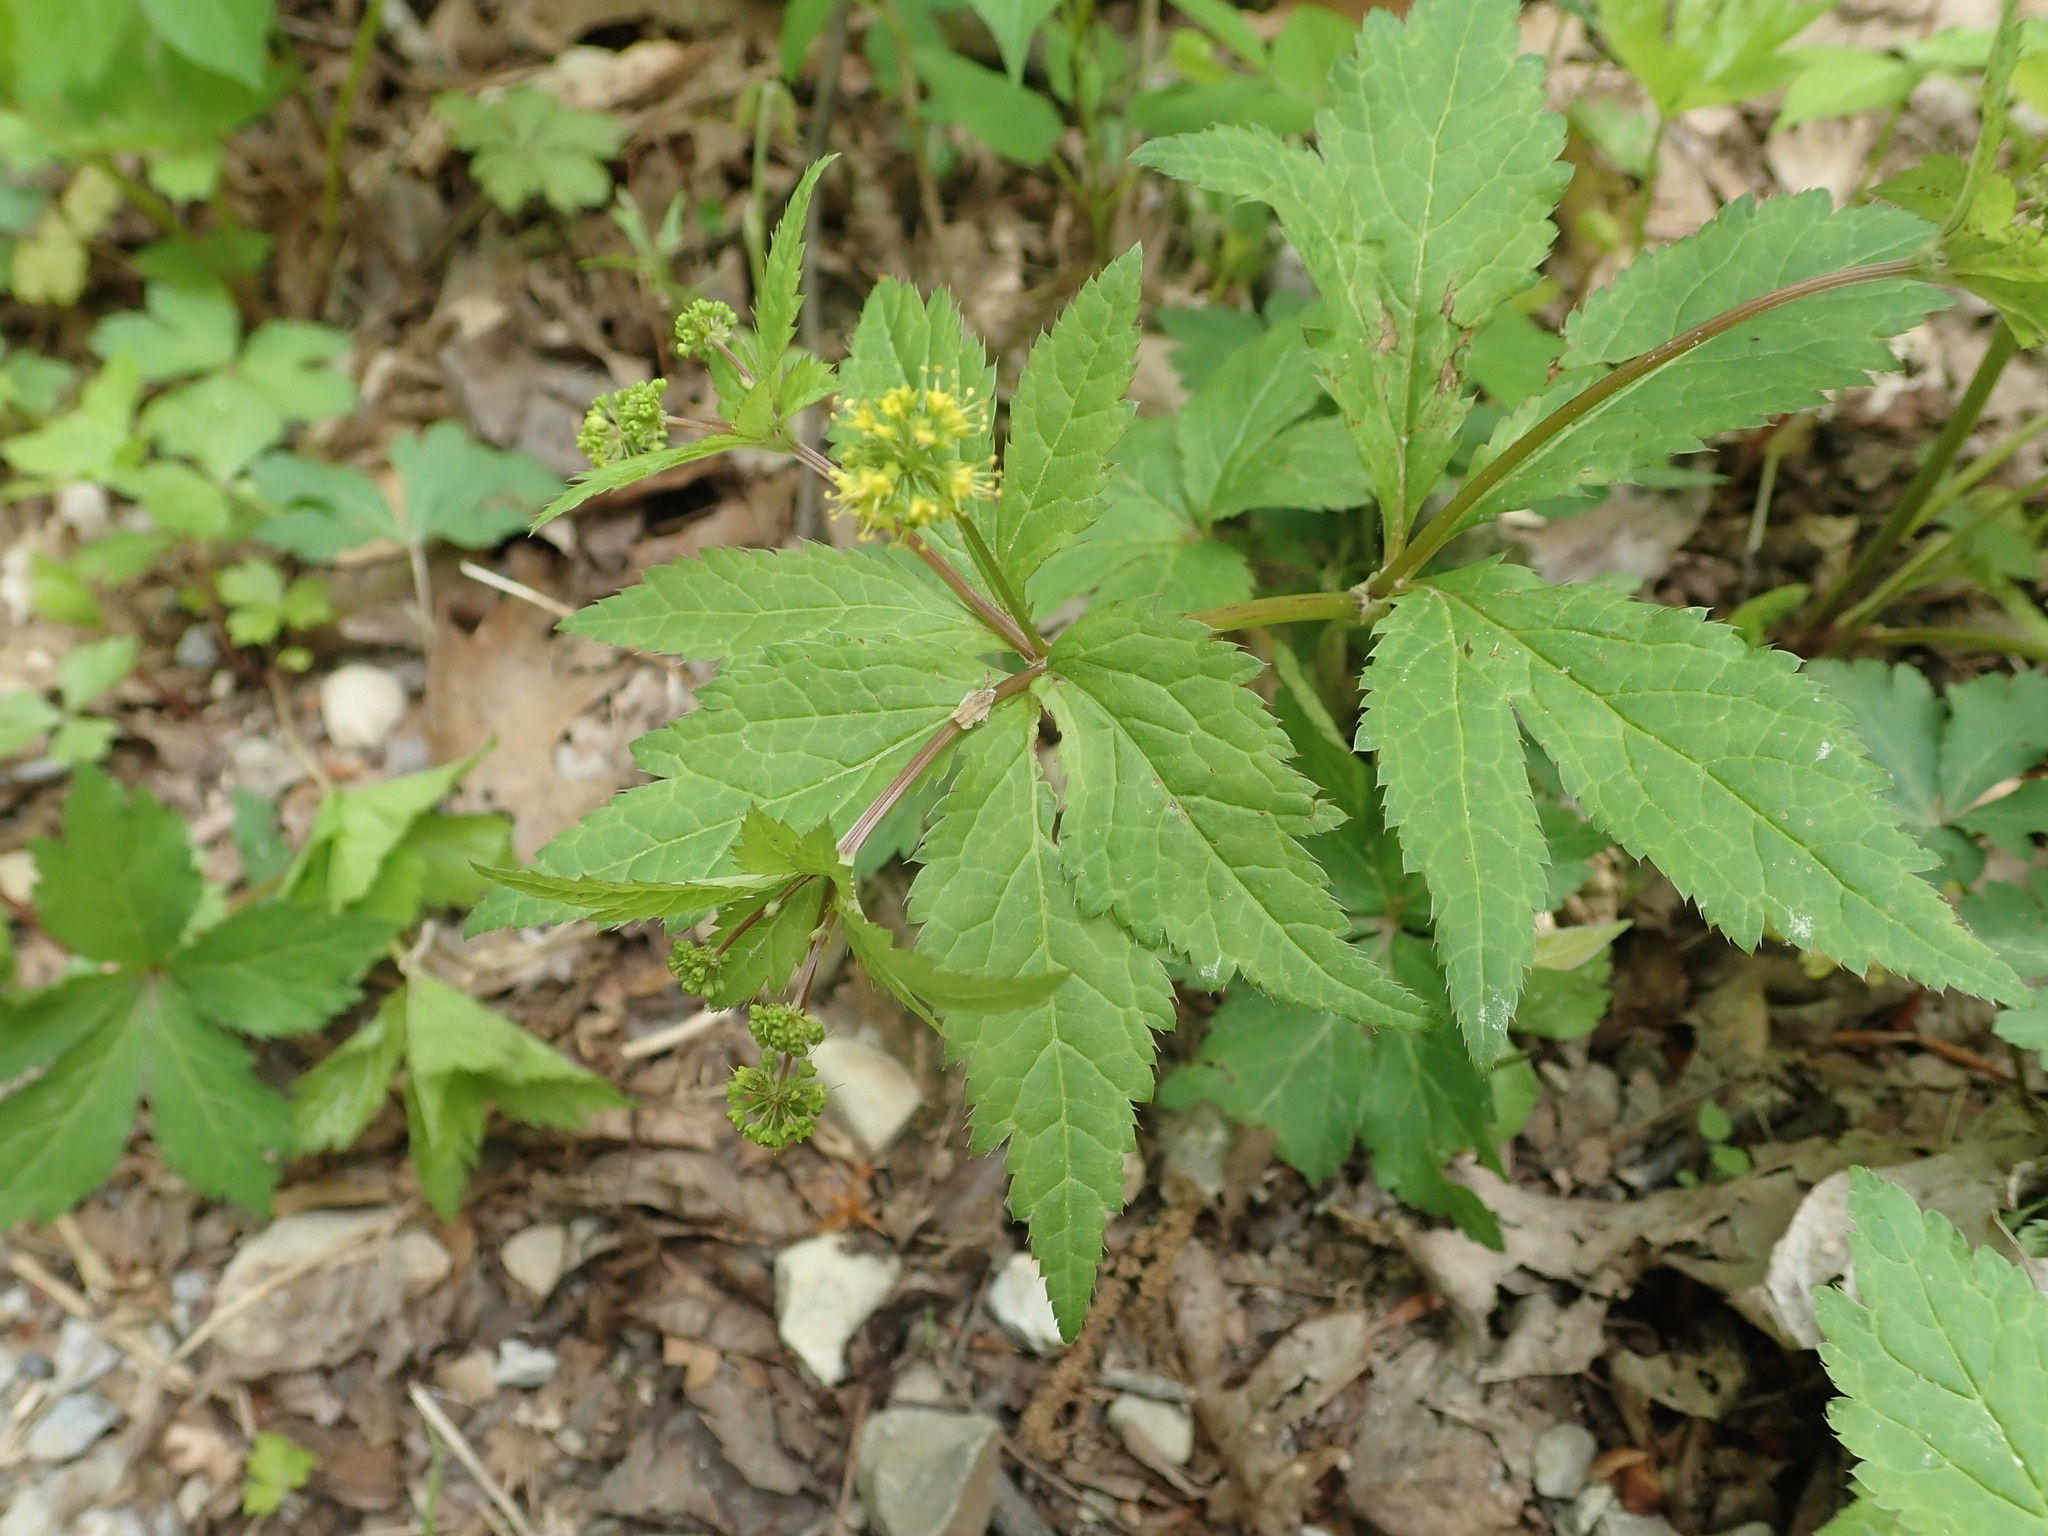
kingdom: Plantae
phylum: Tracheophyta
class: Magnoliopsida
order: Apiales
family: Apiaceae
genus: Sanicula
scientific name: Sanicula odorata
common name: Cluster sanicle
